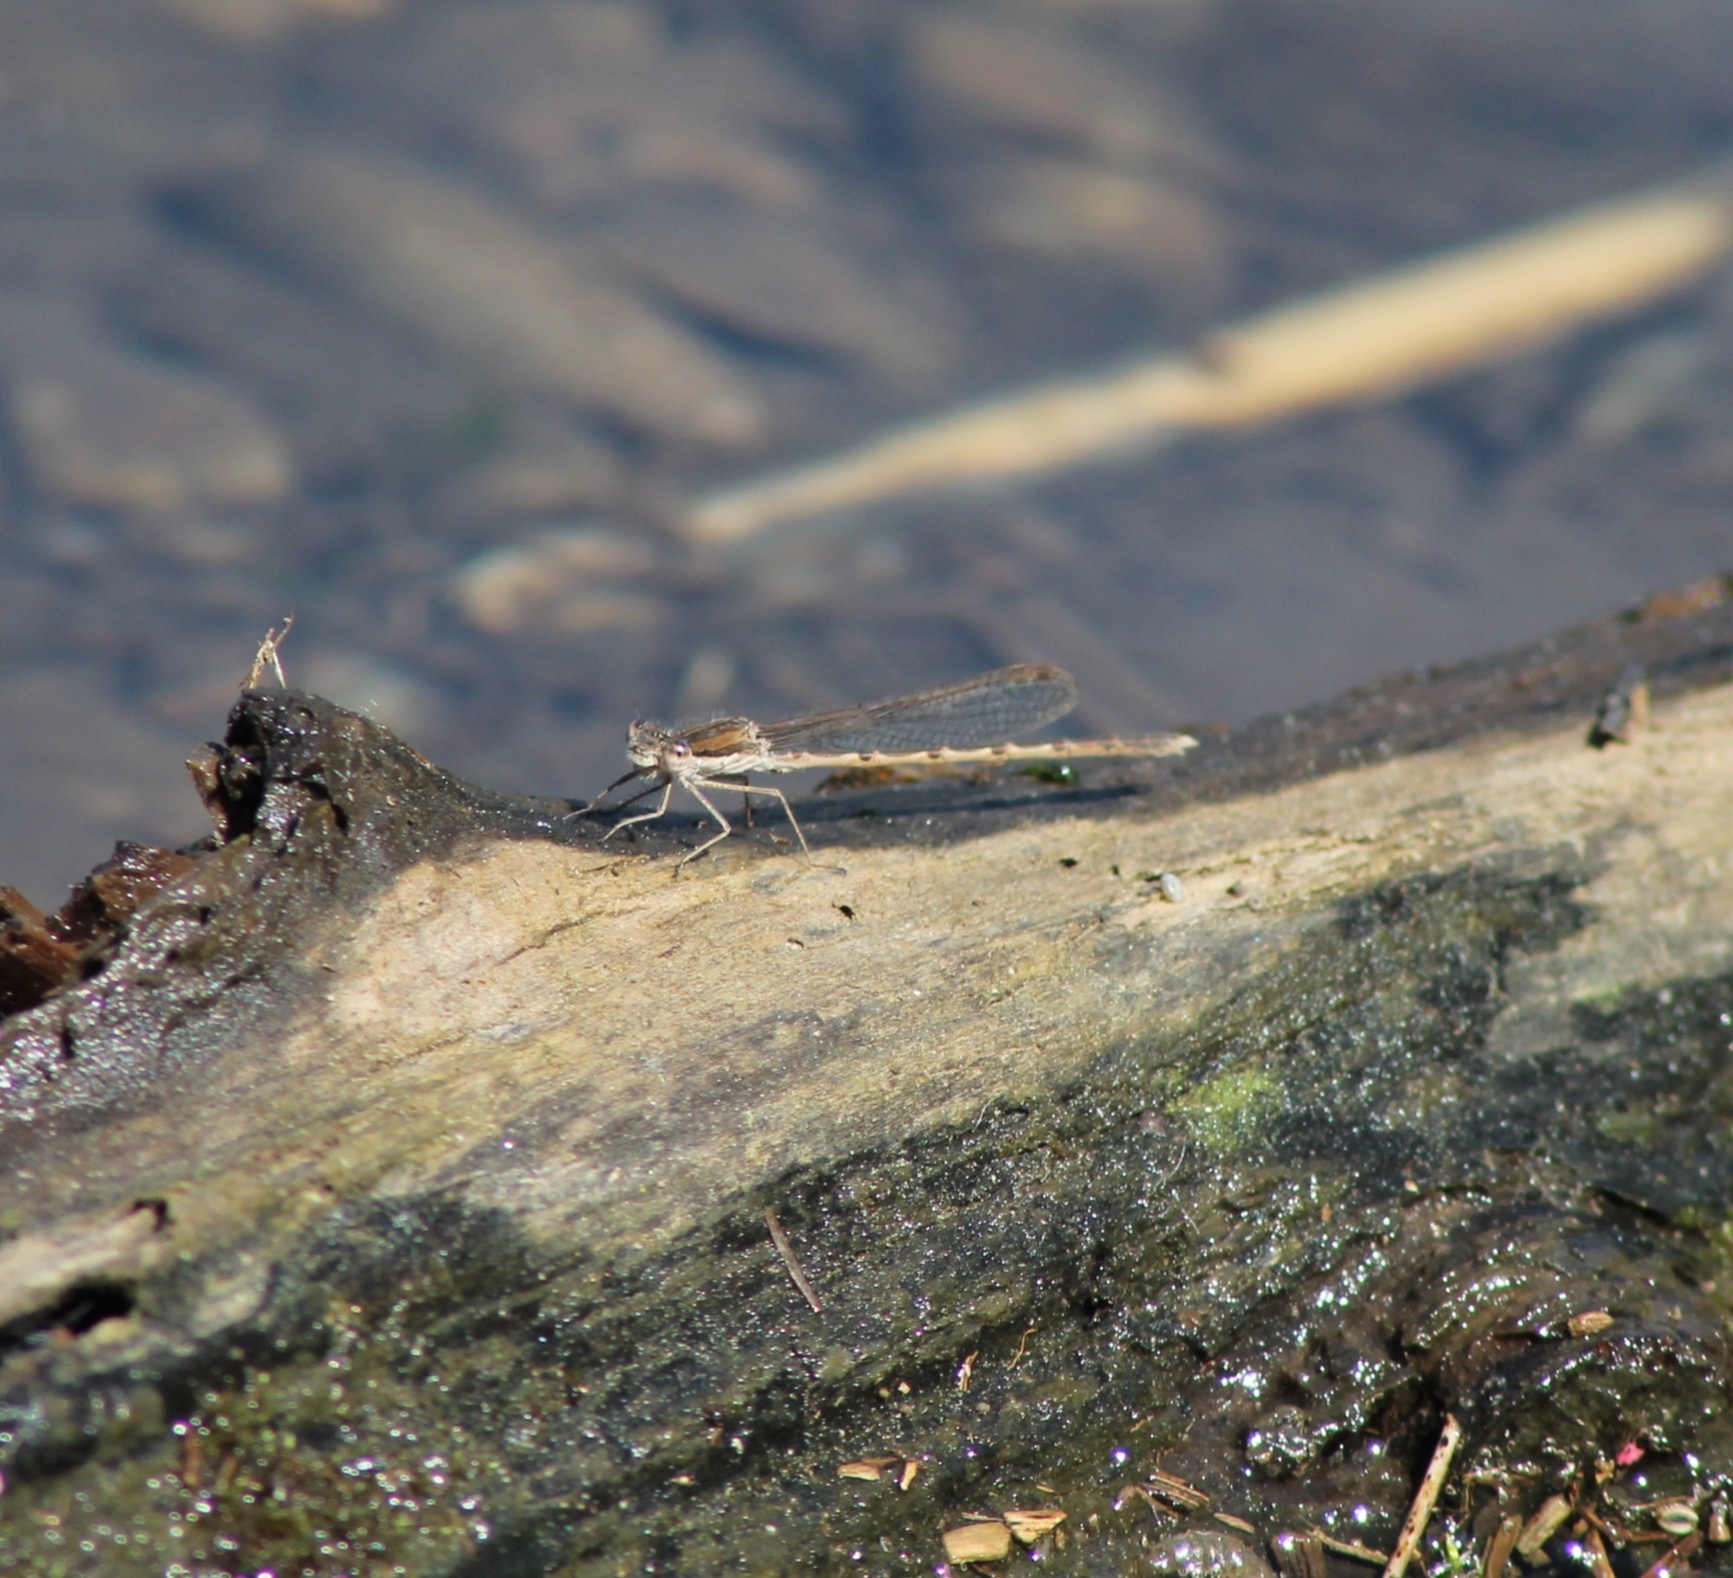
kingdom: Animalia
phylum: Arthropoda
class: Insecta
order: Odonata
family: Lestidae
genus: Sympecma
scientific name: Sympecma fusca
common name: Common winter damsel
